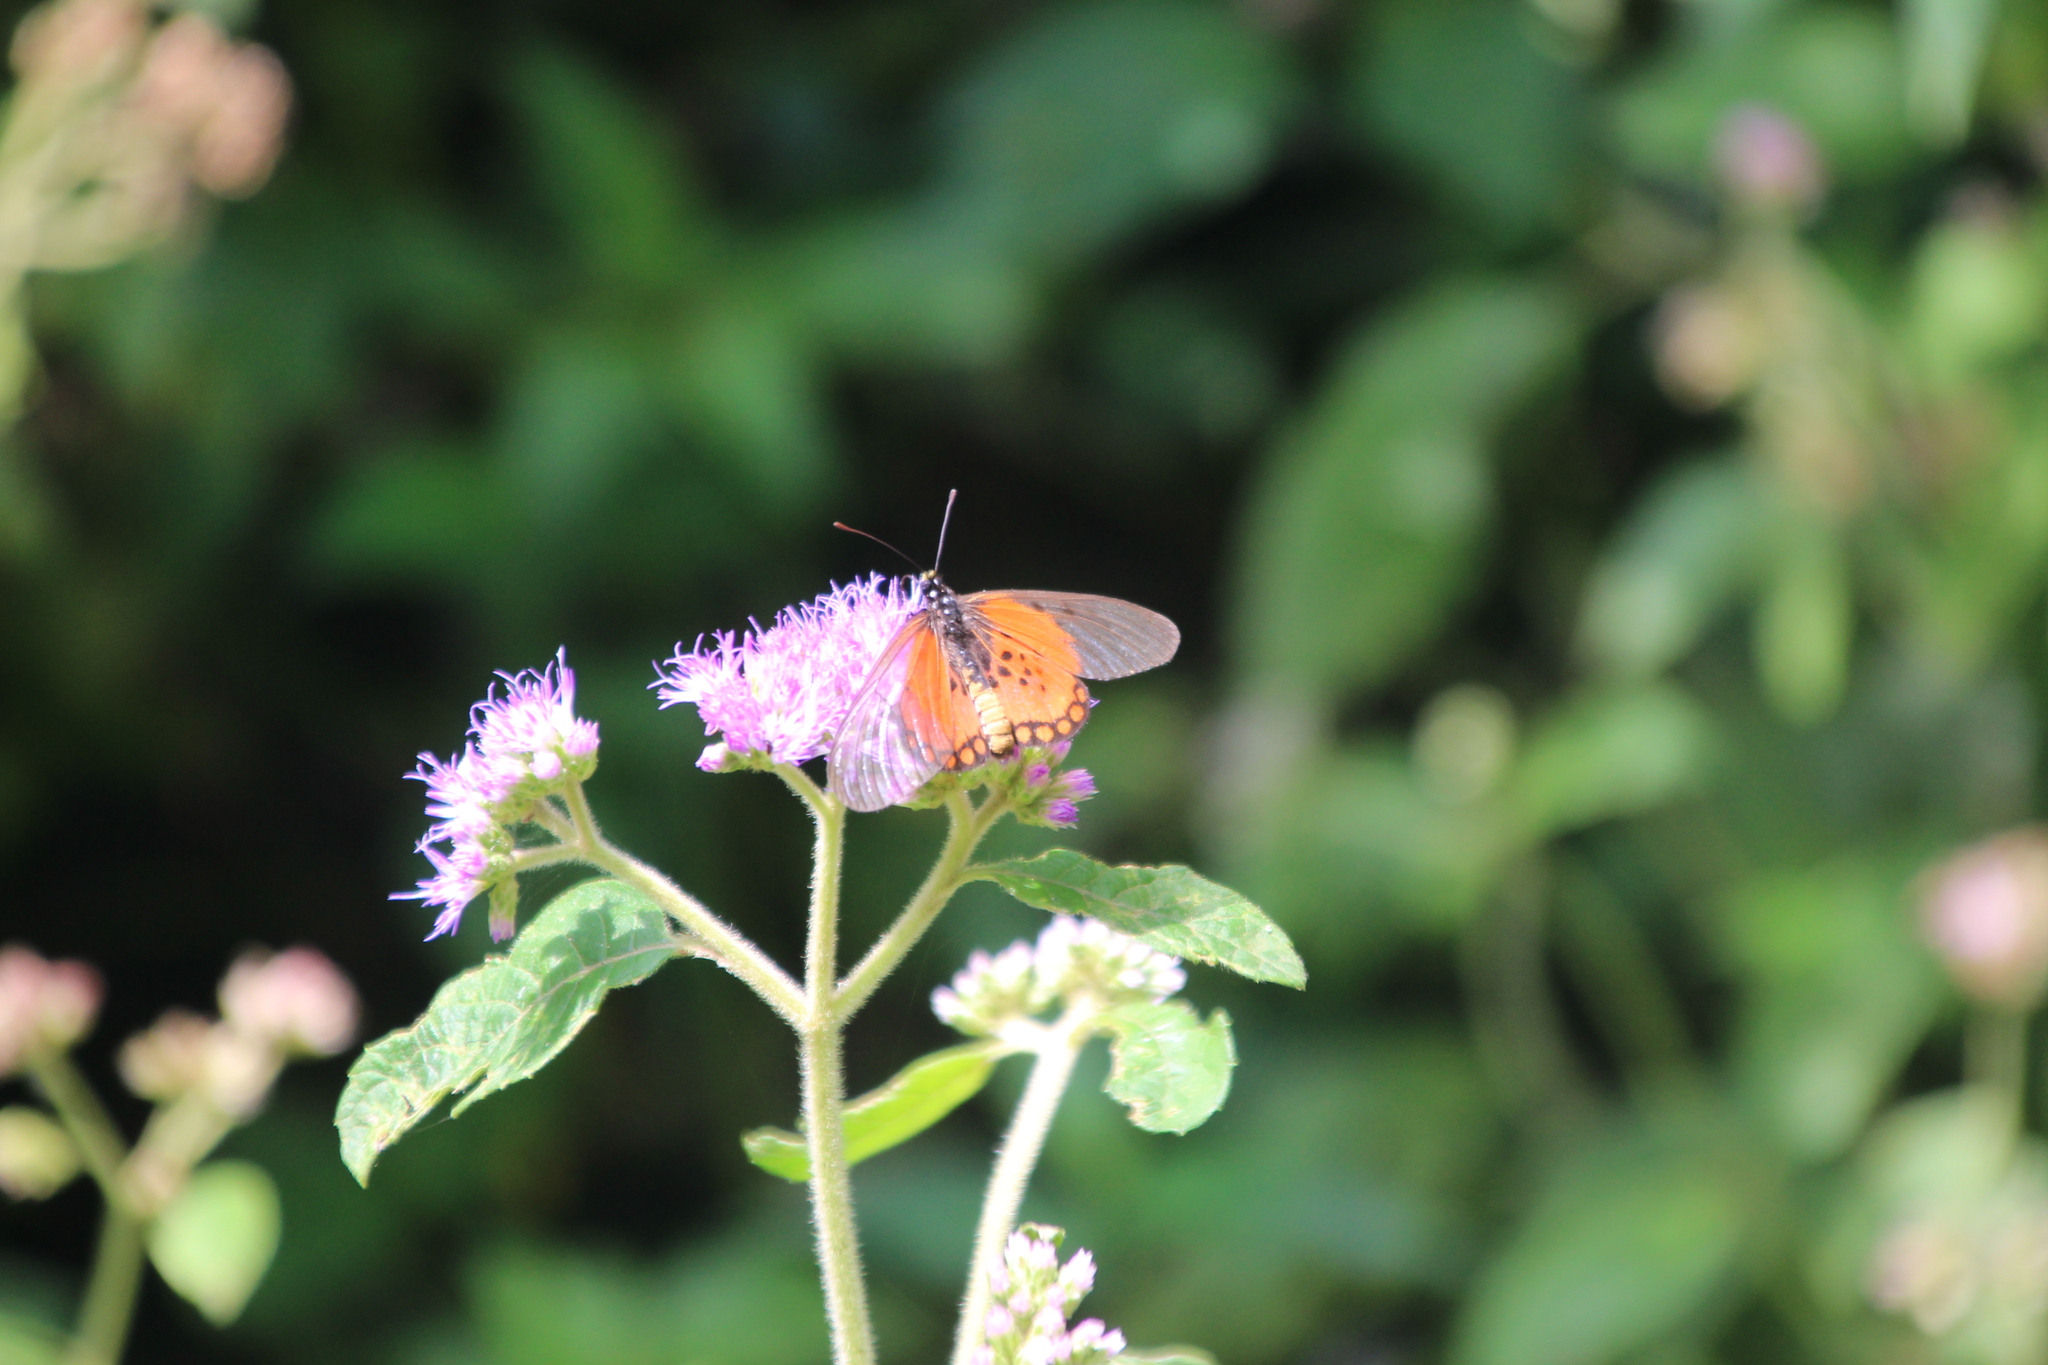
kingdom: Animalia
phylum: Arthropoda
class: Insecta
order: Lepidoptera
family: Nymphalidae
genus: Acraea
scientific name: Acraea endoscota
